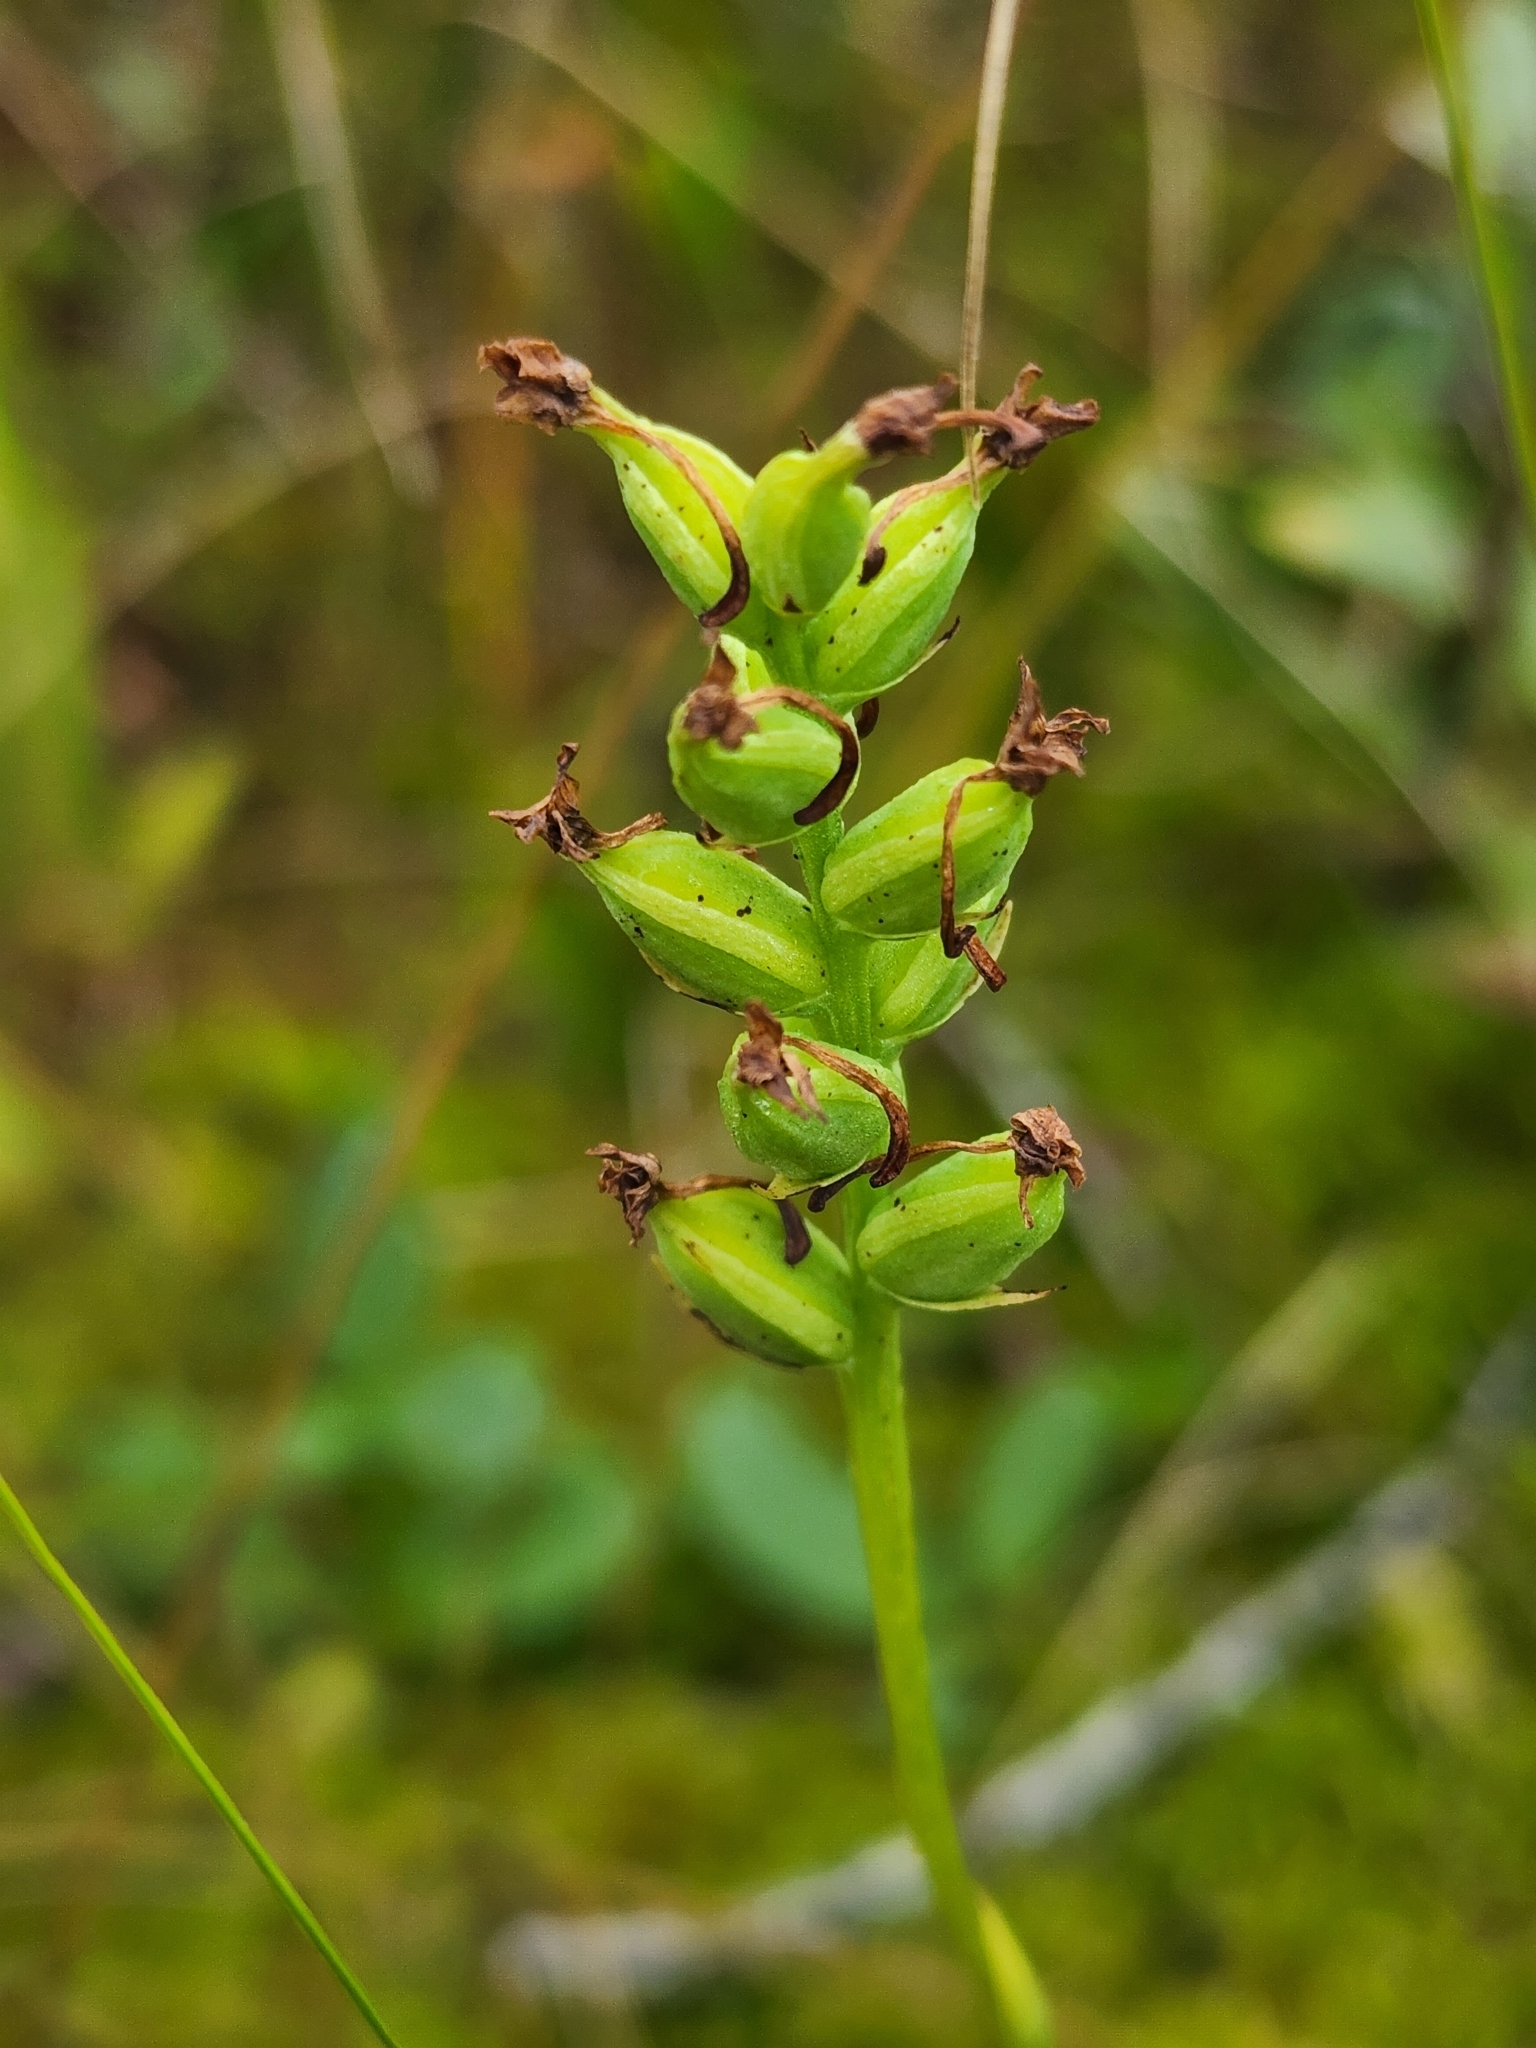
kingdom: Plantae
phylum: Tracheophyta
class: Liliopsida
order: Asparagales
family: Orchidaceae
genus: Platanthera
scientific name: Platanthera clavellata
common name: Club-spur orchid
